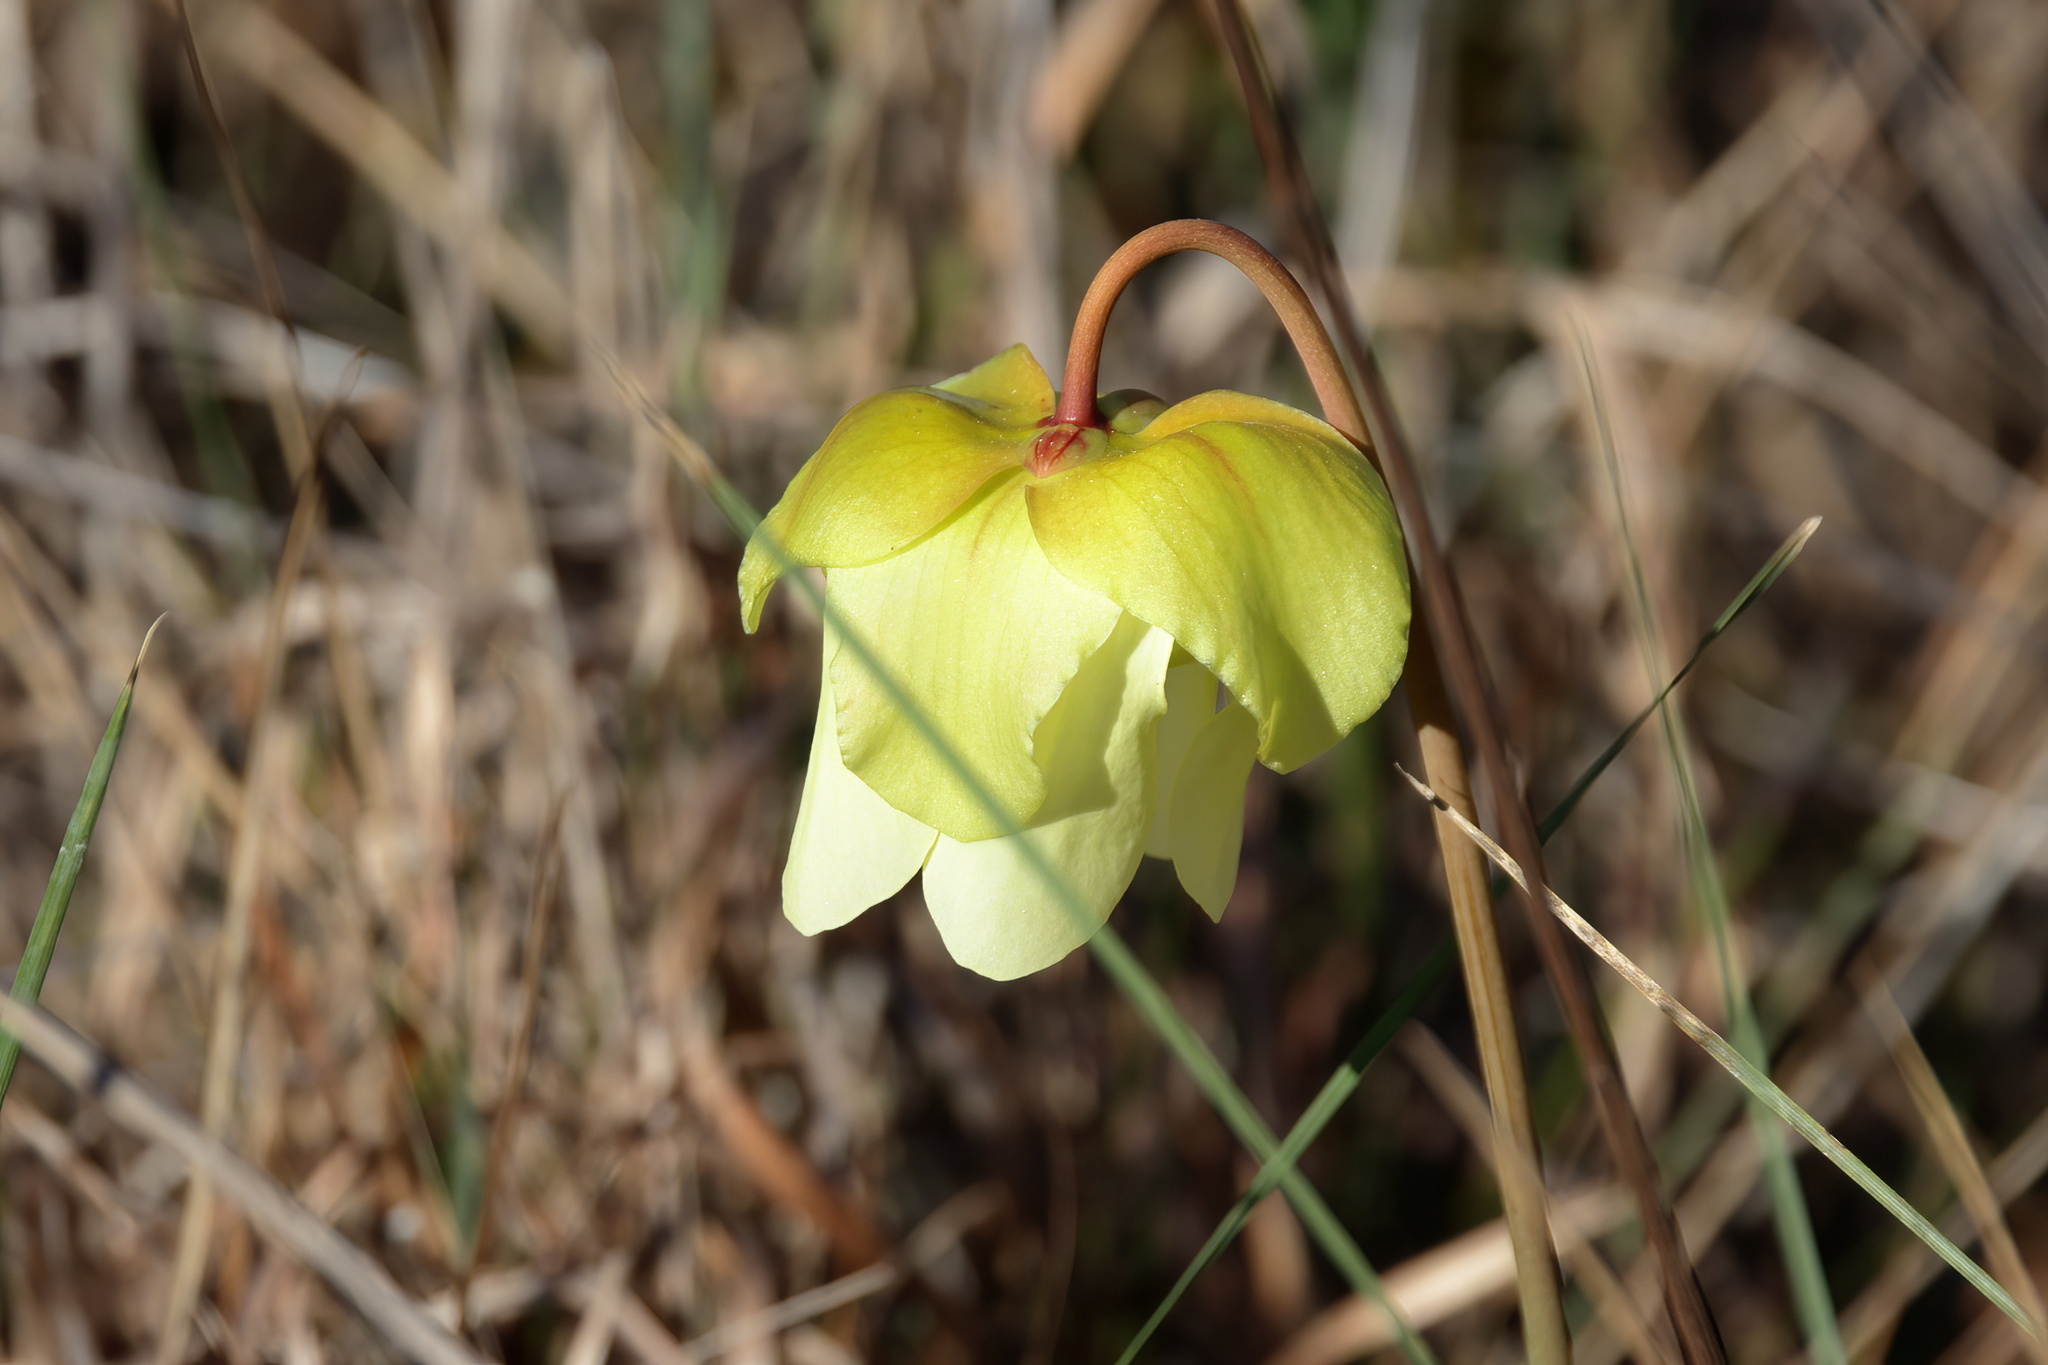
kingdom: Plantae
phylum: Tracheophyta
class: Magnoliopsida
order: Ericales
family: Sarraceniaceae
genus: Sarracenia
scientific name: Sarracenia alata
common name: Yellow trumpets
